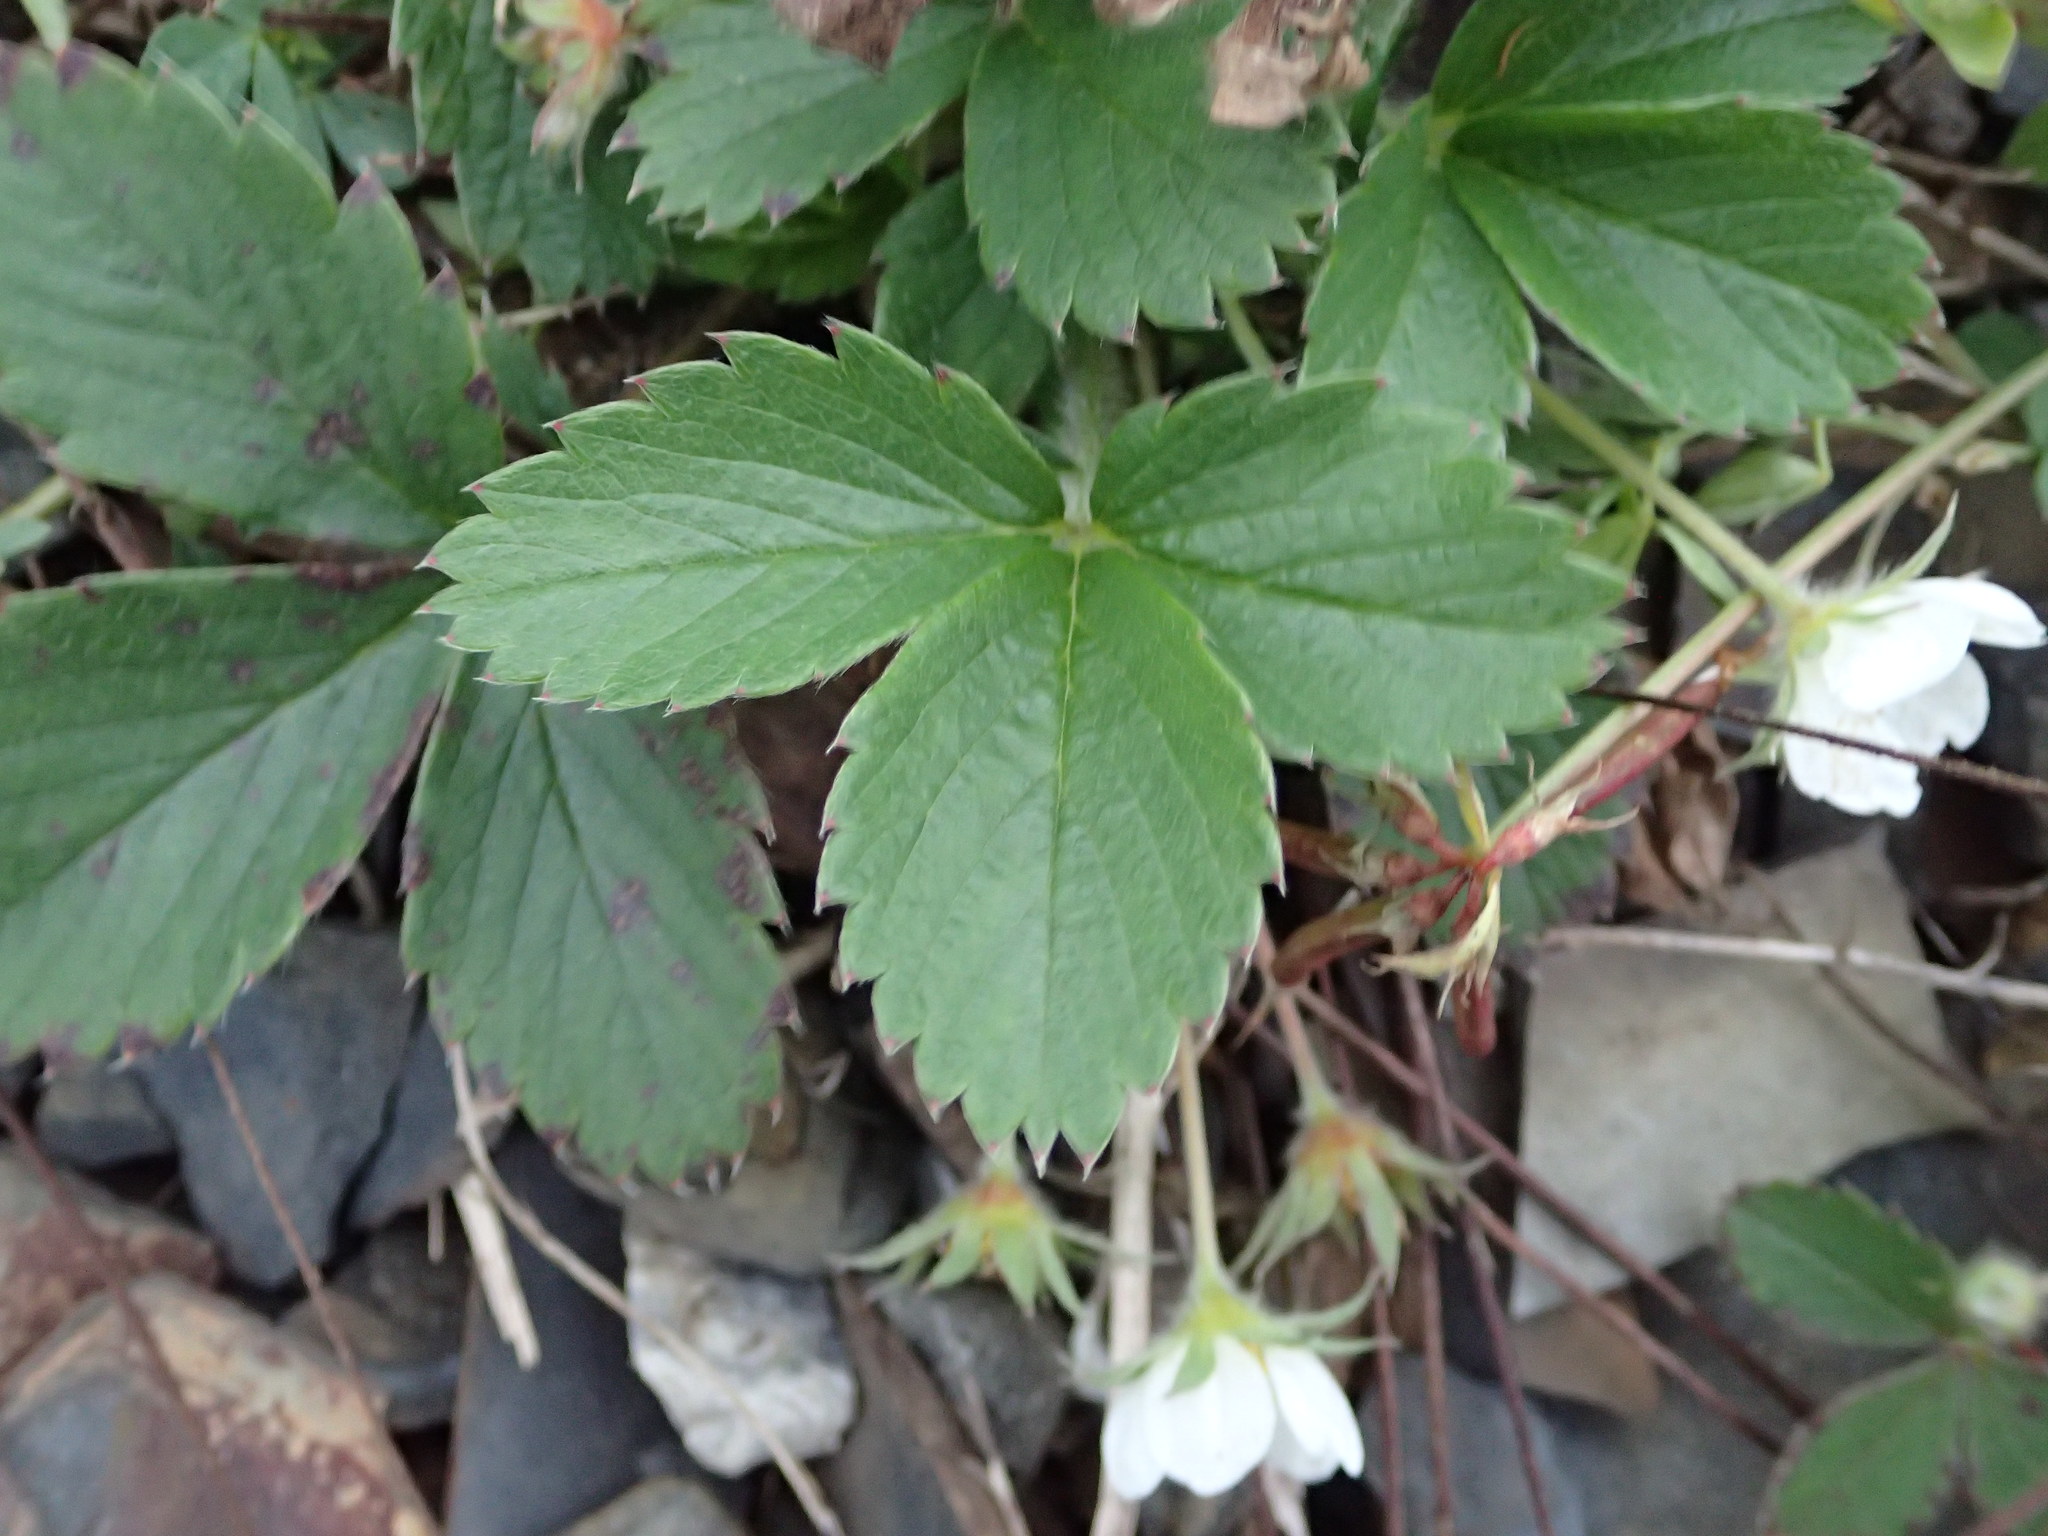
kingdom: Plantae
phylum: Tracheophyta
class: Magnoliopsida
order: Rosales
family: Rosaceae
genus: Fragaria
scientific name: Fragaria vesca
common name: Wild strawberry
